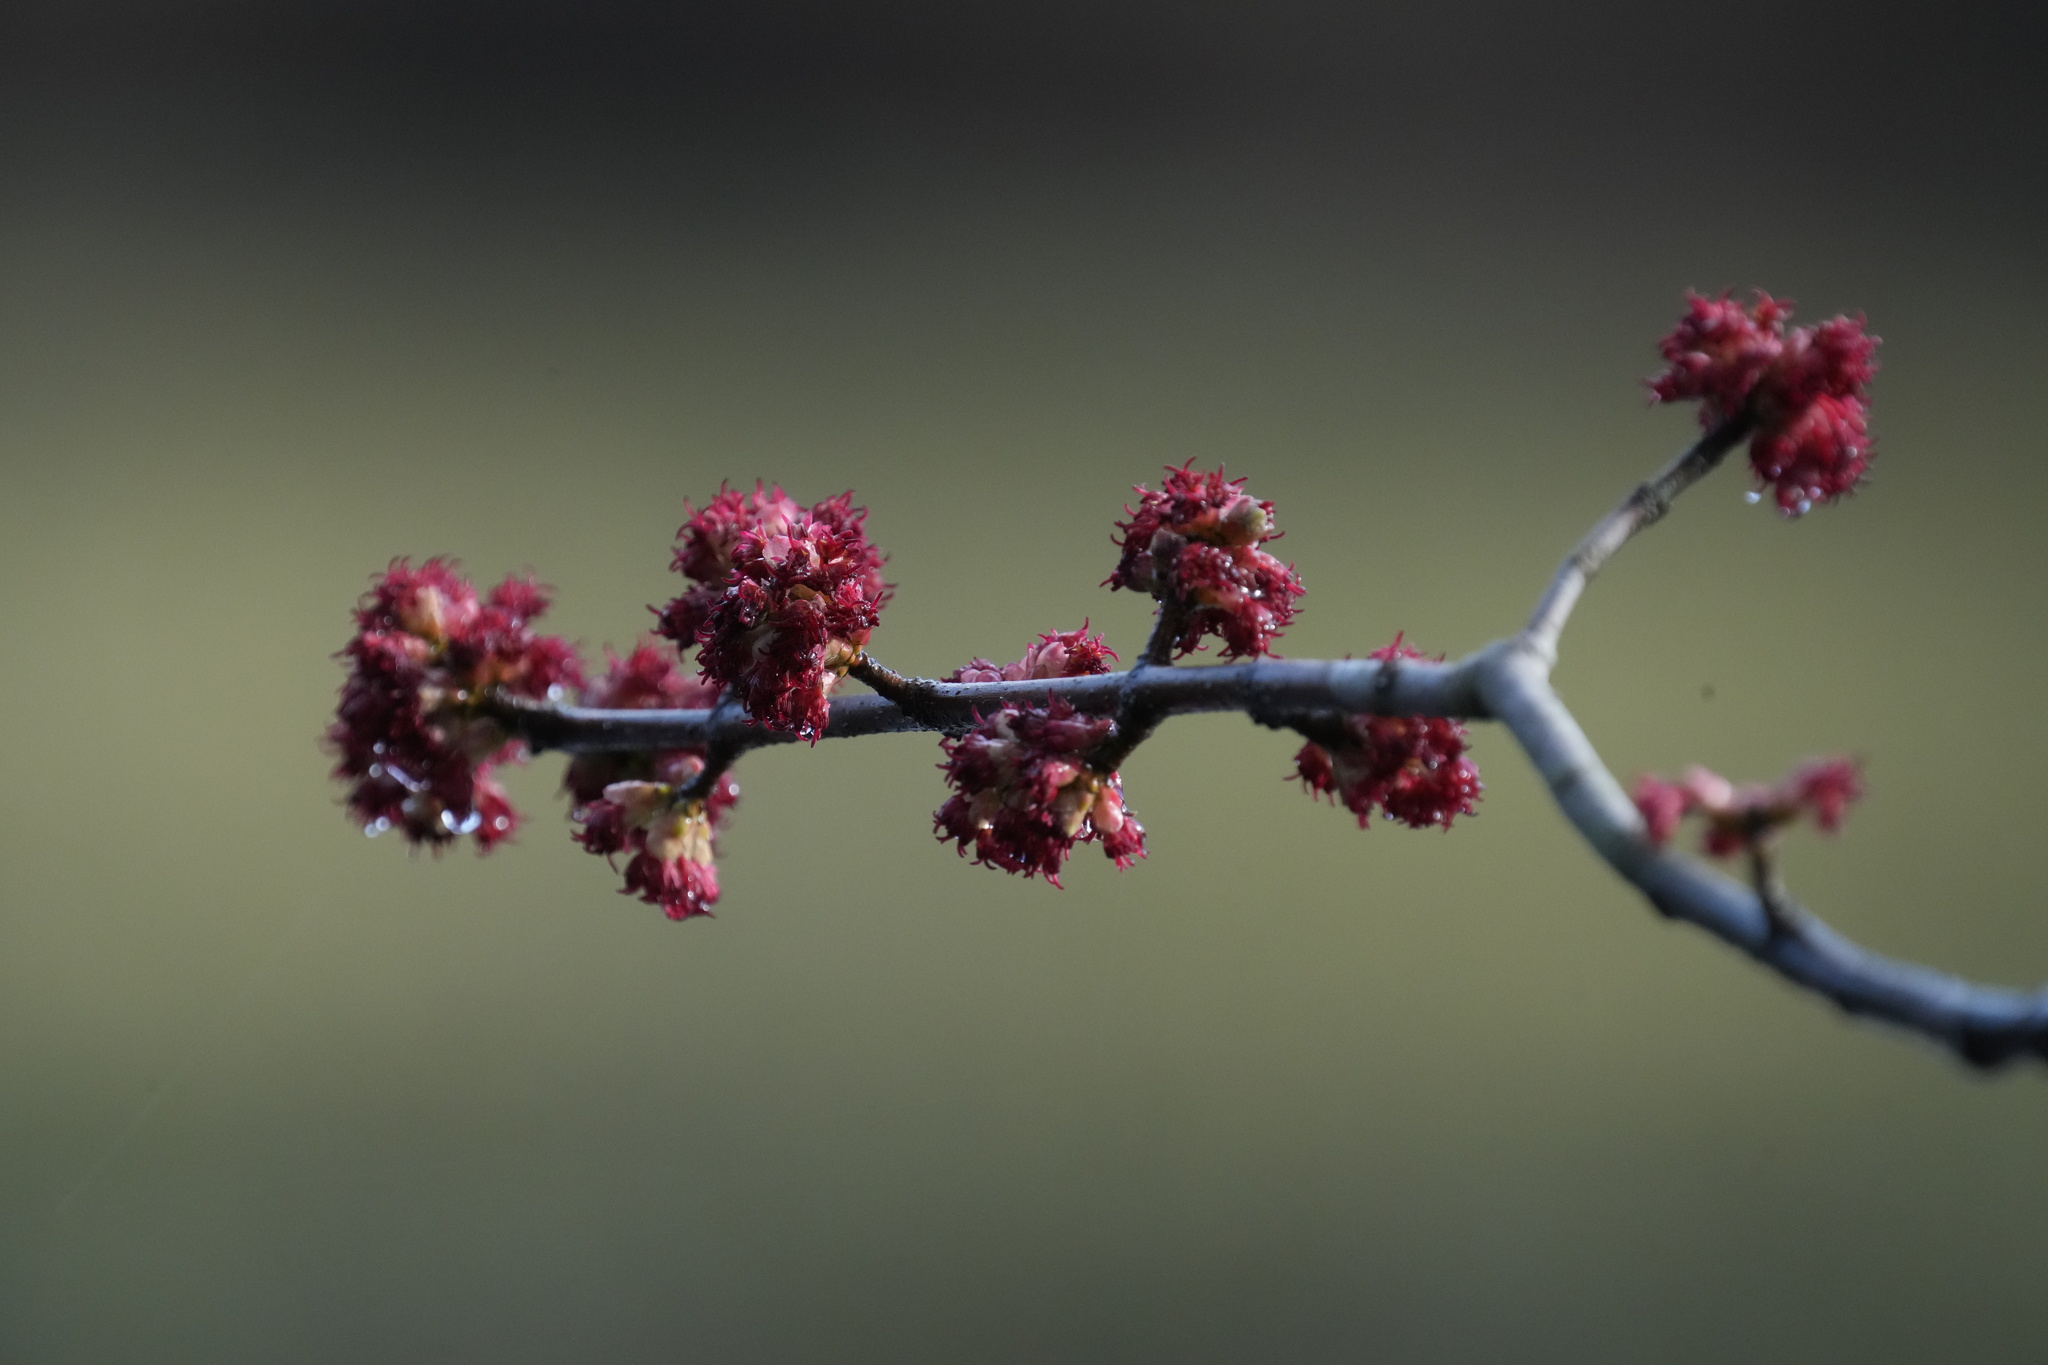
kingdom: Plantae
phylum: Tracheophyta
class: Magnoliopsida
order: Sapindales
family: Sapindaceae
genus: Acer
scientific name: Acer rubrum
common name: Red maple
